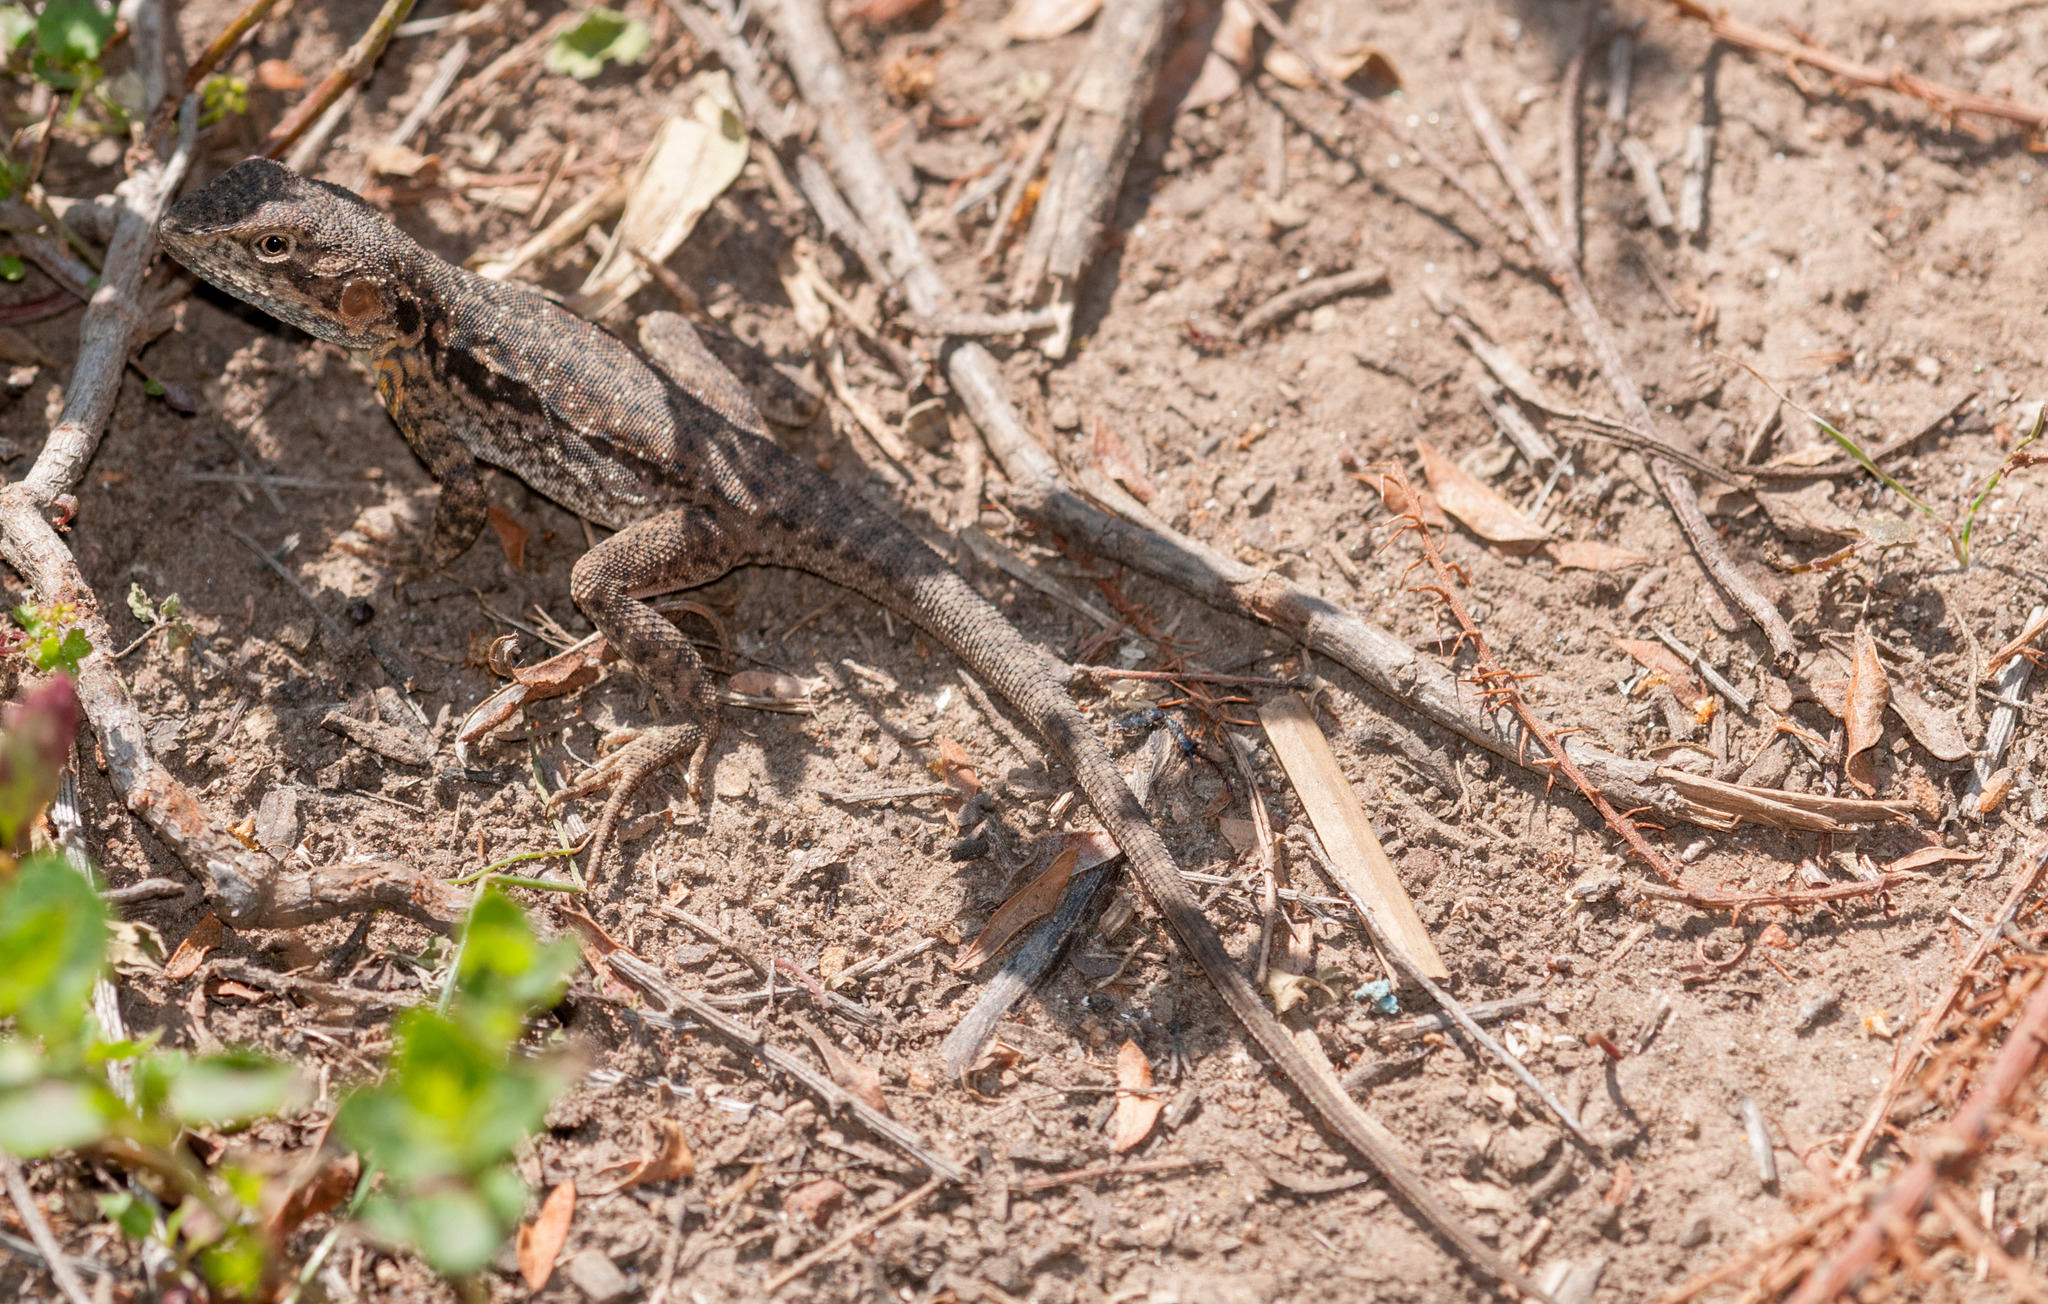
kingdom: Animalia
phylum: Chordata
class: Squamata
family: Agamidae
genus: Ctenophorus
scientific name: Ctenophorus decresii
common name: Tawny dragon
